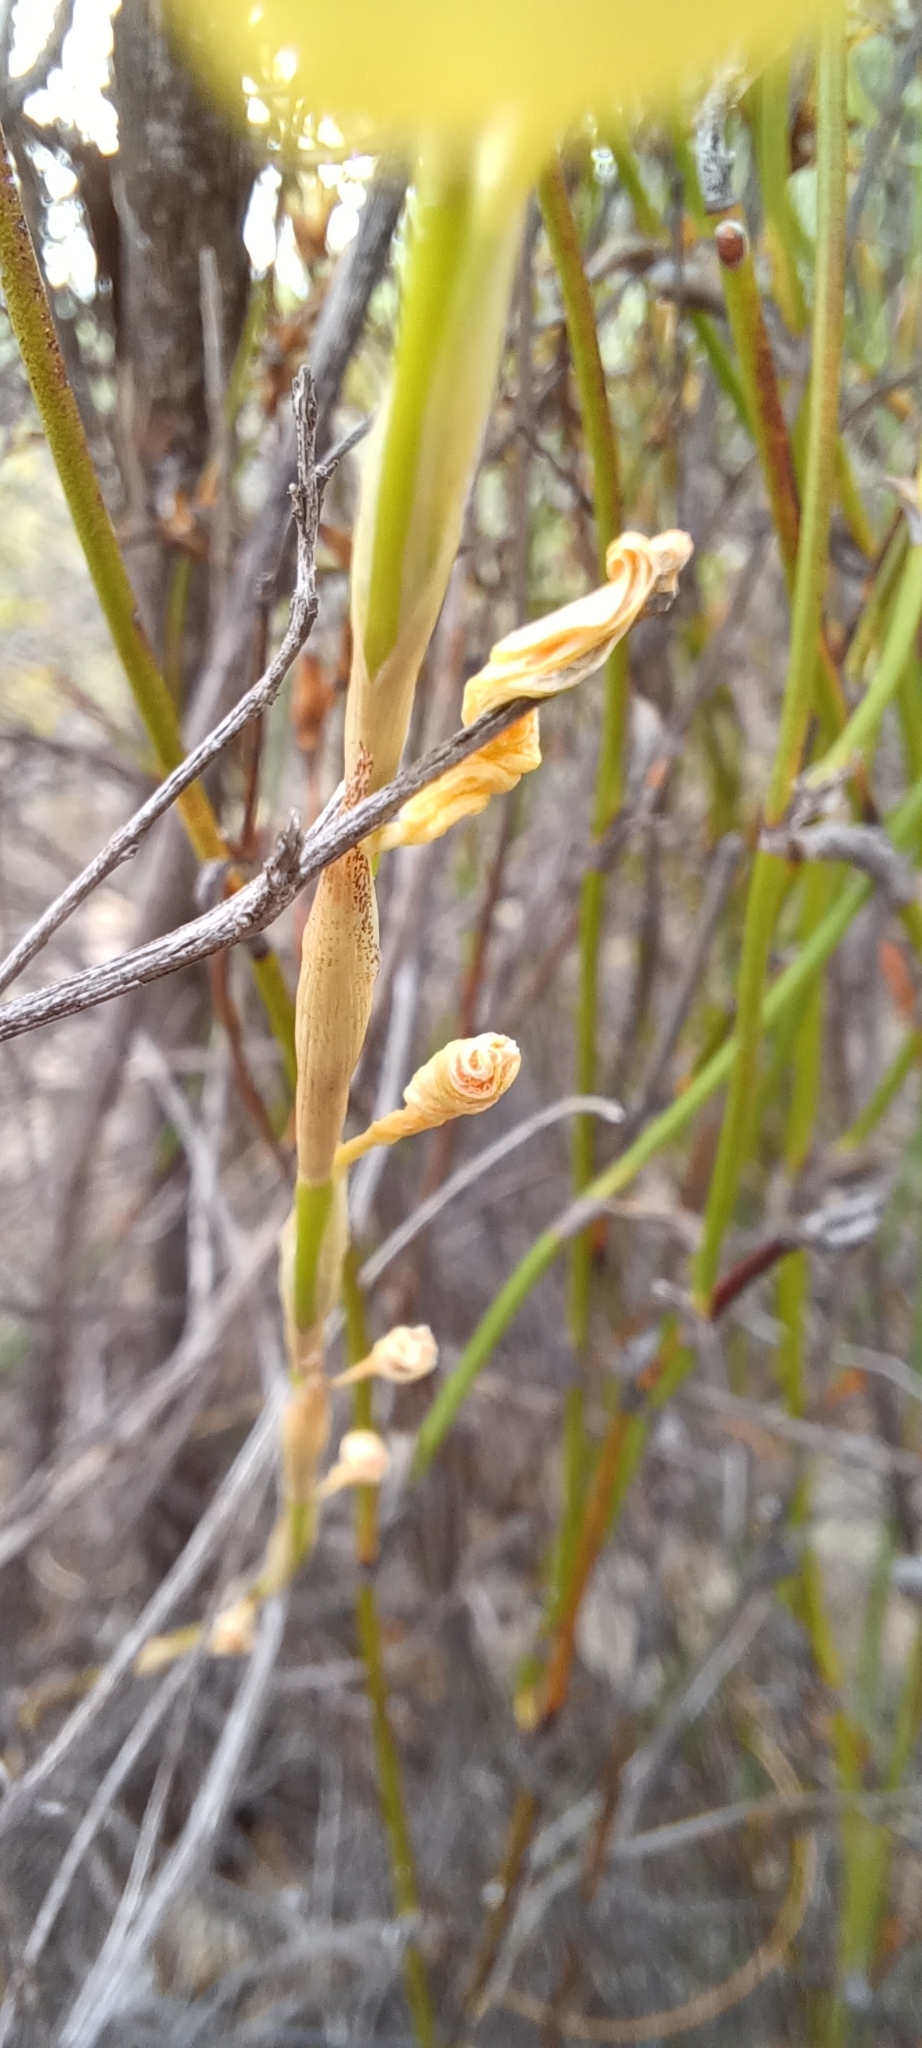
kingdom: Plantae
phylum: Tracheophyta
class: Liliopsida
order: Asparagales
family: Iridaceae
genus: Moraea
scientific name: Moraea virgata
